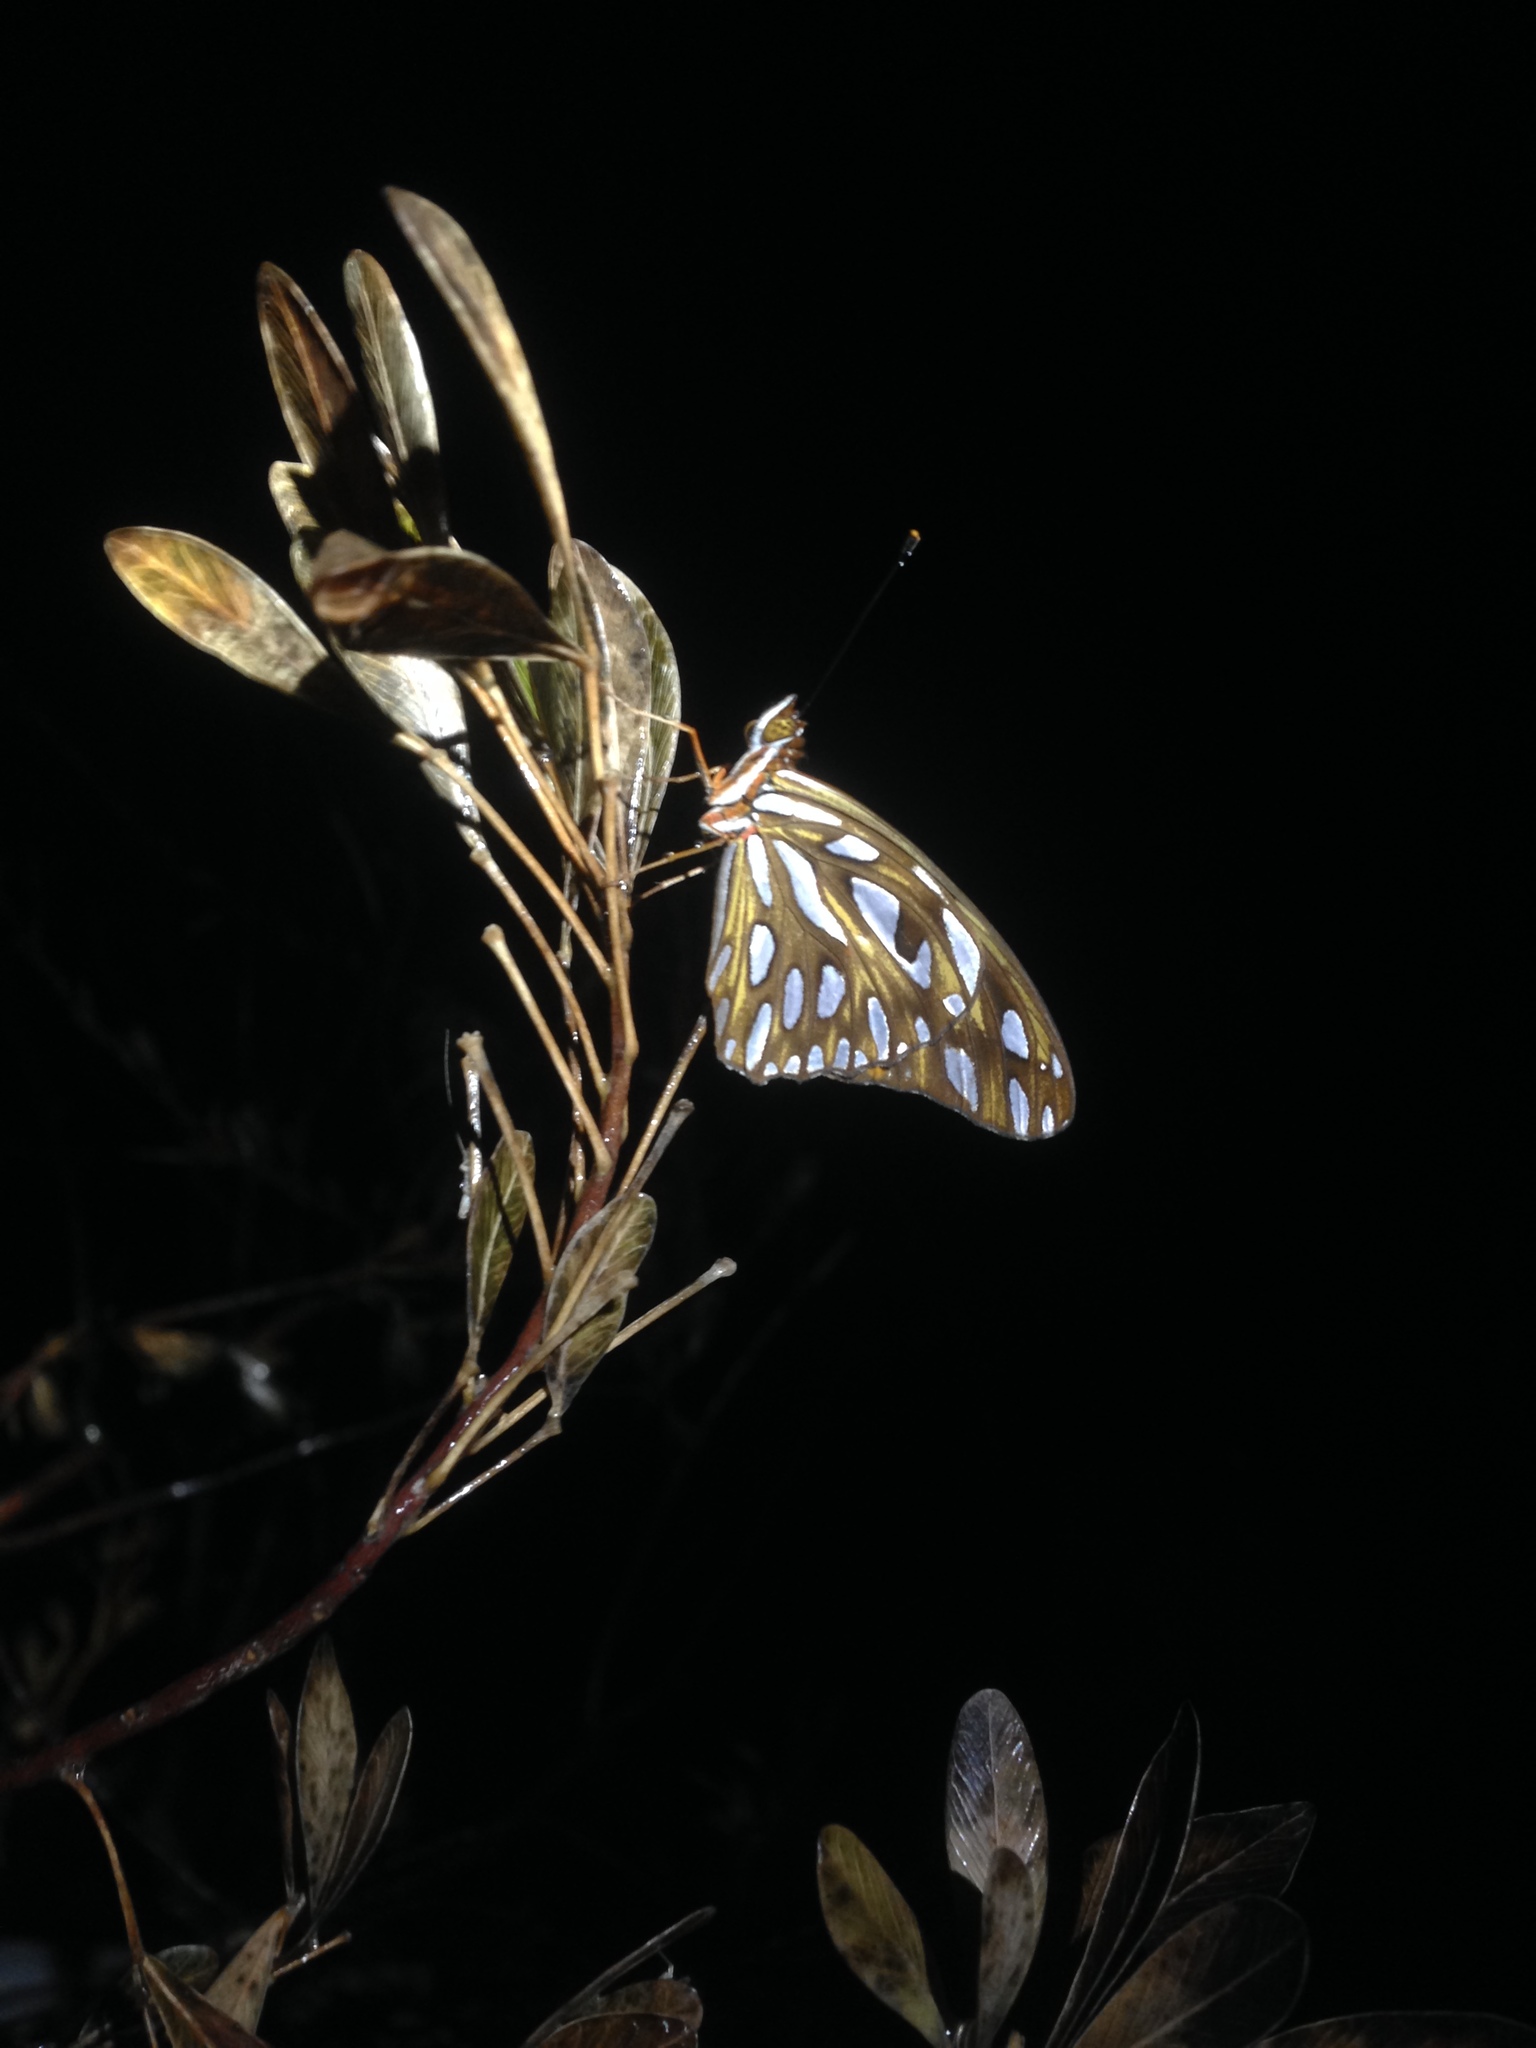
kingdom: Animalia
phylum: Arthropoda
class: Insecta
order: Lepidoptera
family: Nymphalidae
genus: Dione
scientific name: Dione vanillae
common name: Gulf fritillary
